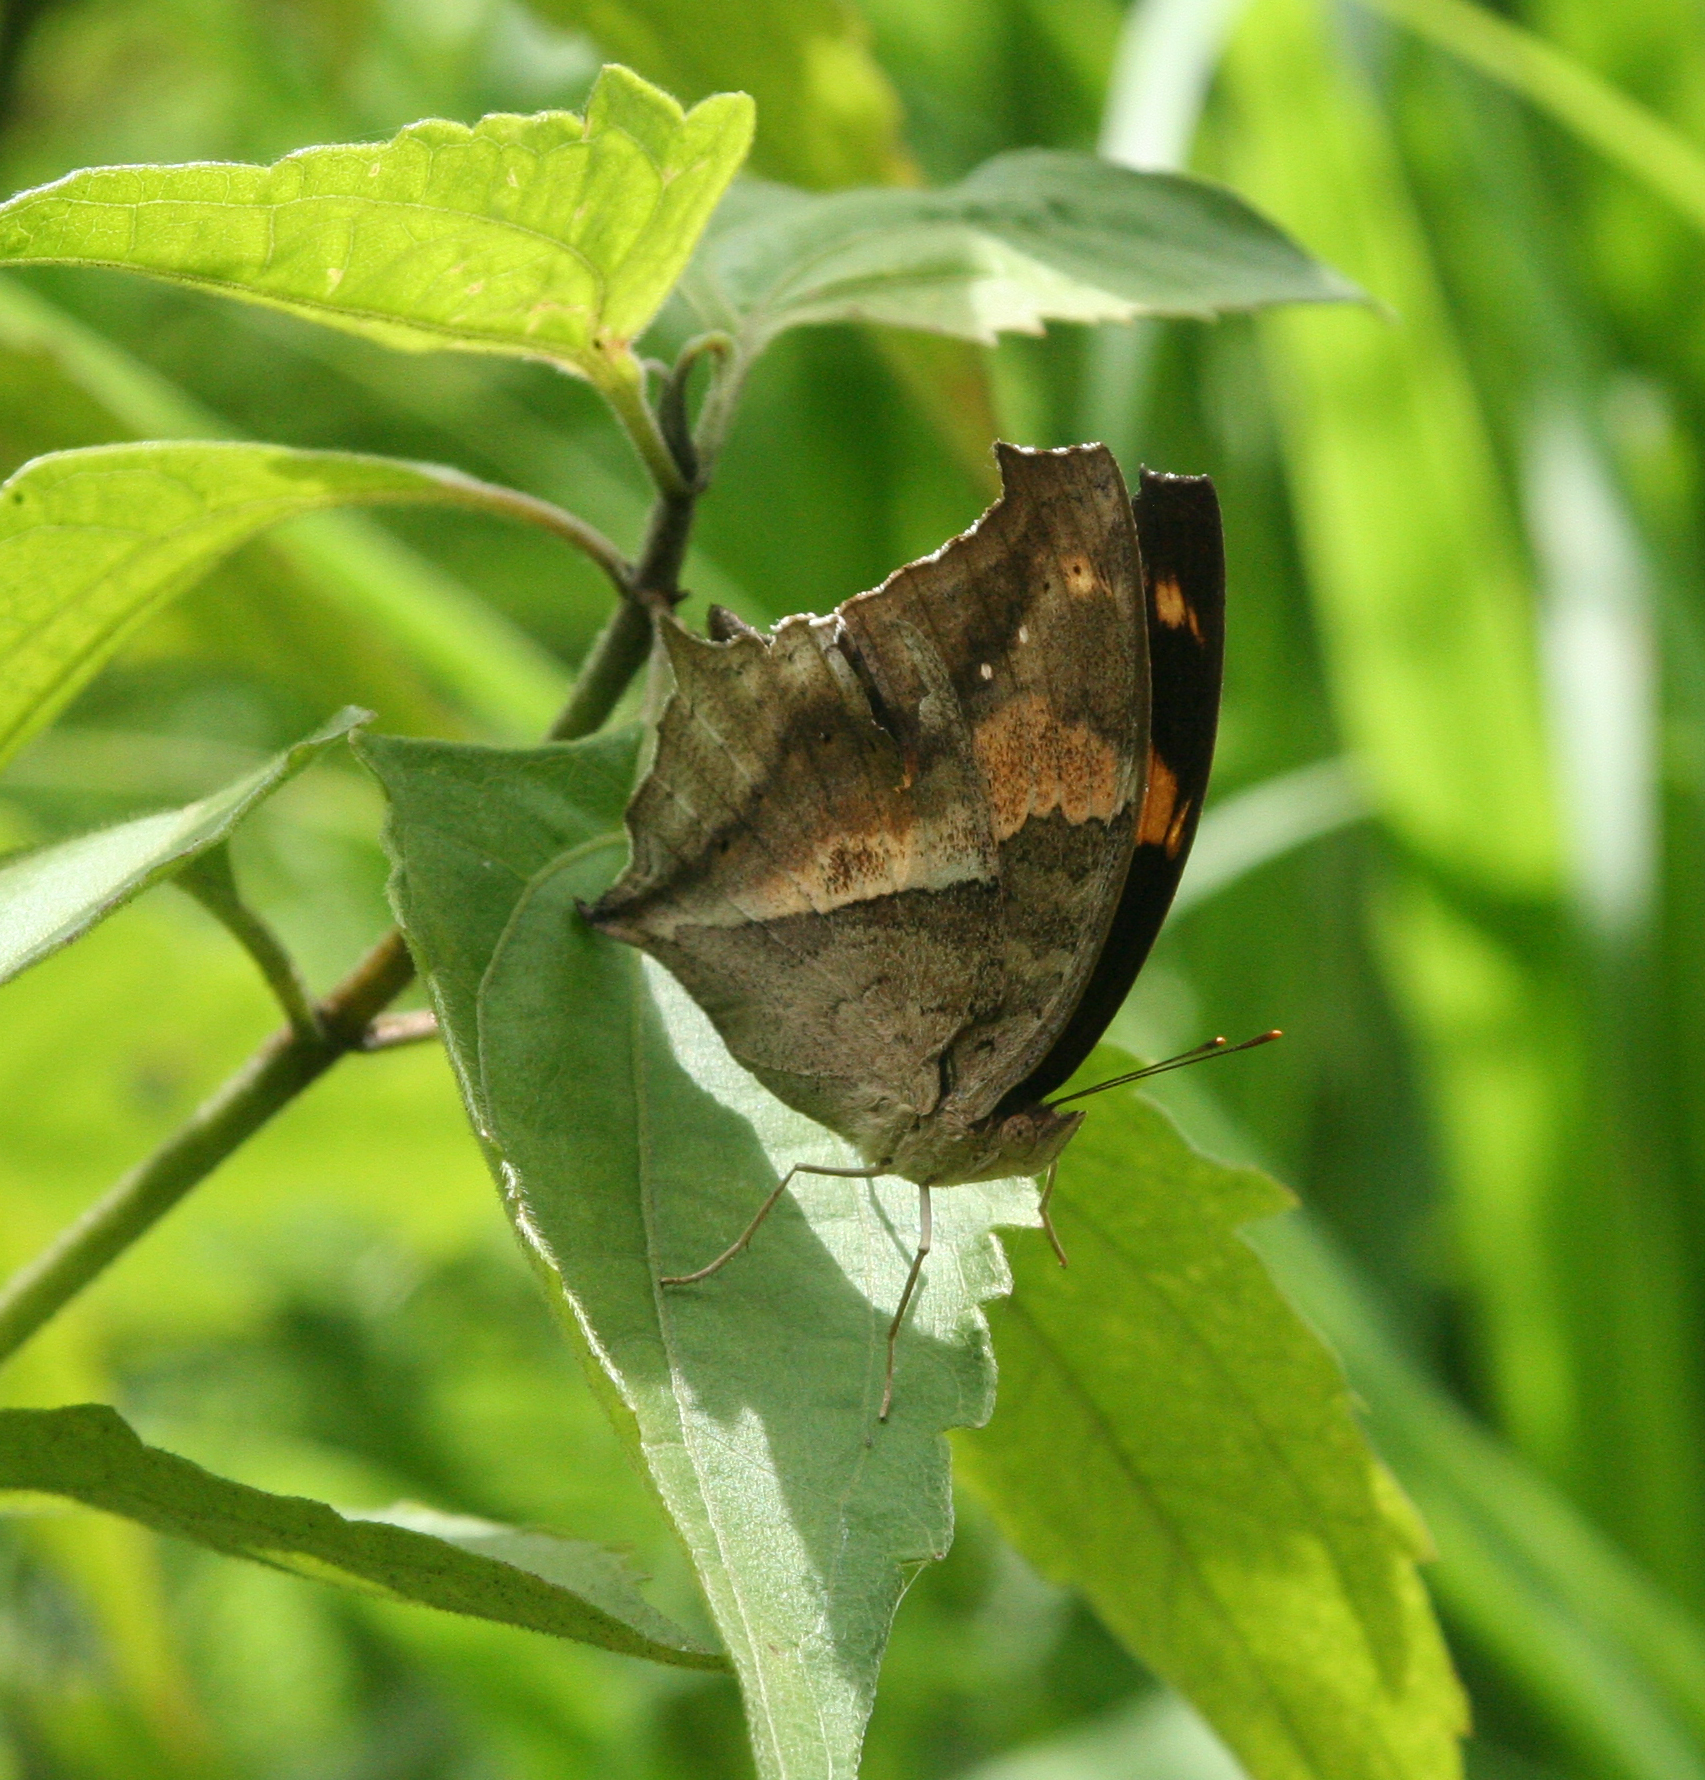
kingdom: Animalia
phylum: Arthropoda
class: Insecta
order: Lepidoptera
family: Nymphalidae
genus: Yoma
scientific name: Yoma sabina
